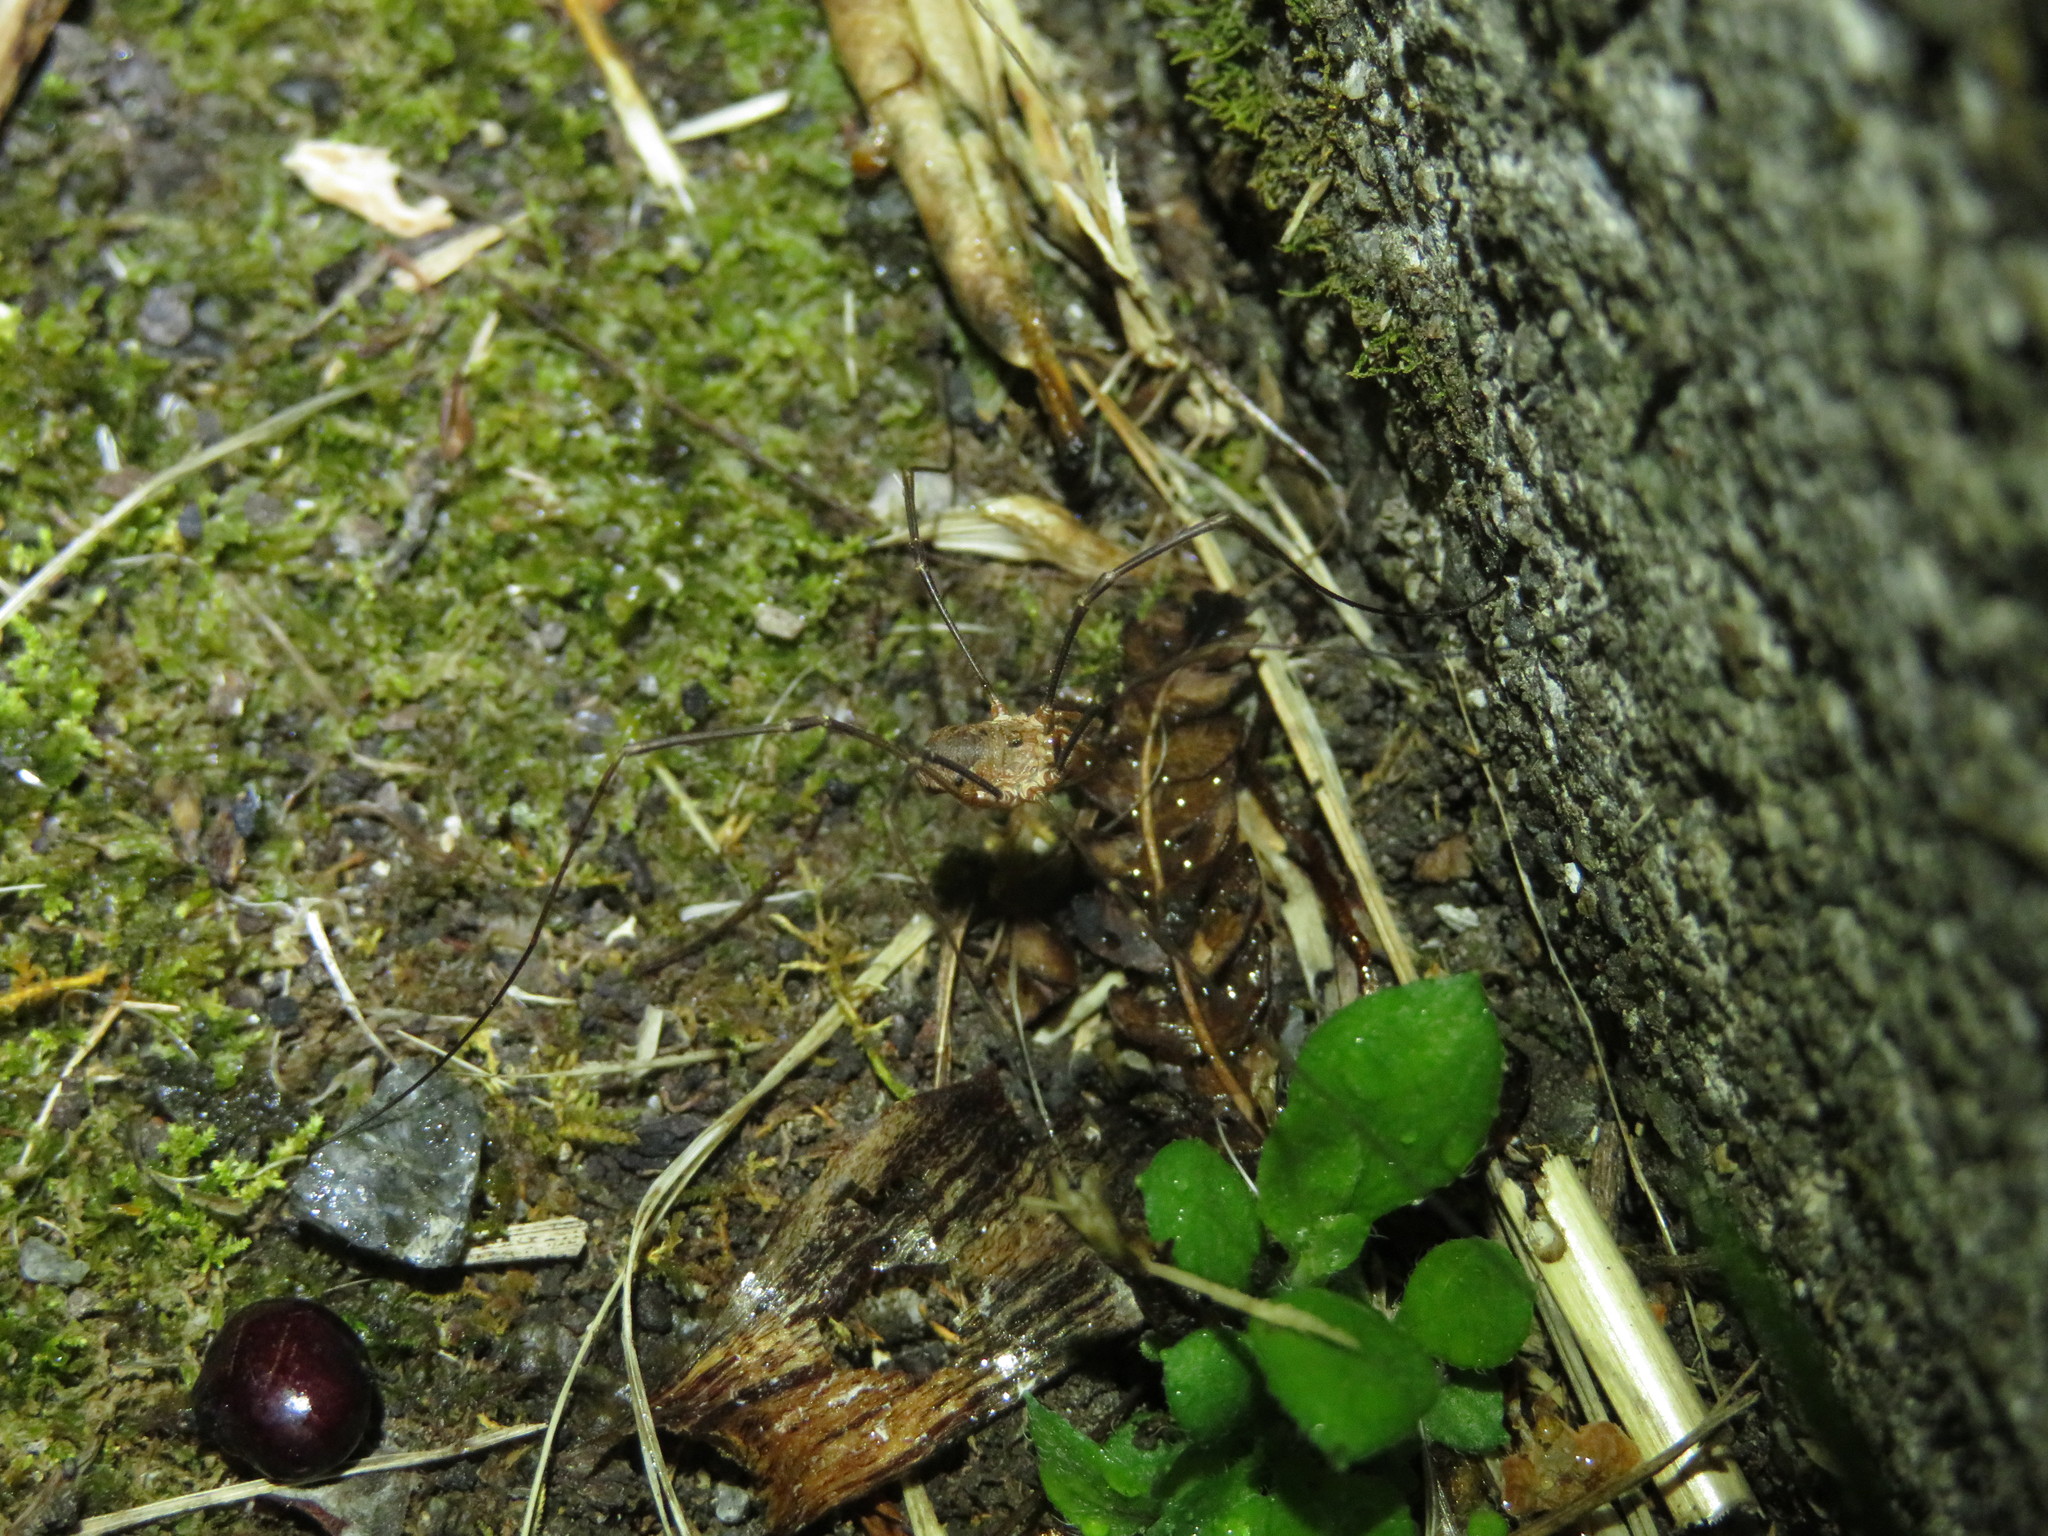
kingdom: Animalia
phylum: Arthropoda
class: Arachnida
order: Opiliones
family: Phalangiidae
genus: Phalangium
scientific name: Phalangium opilio
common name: Daddy longleg
